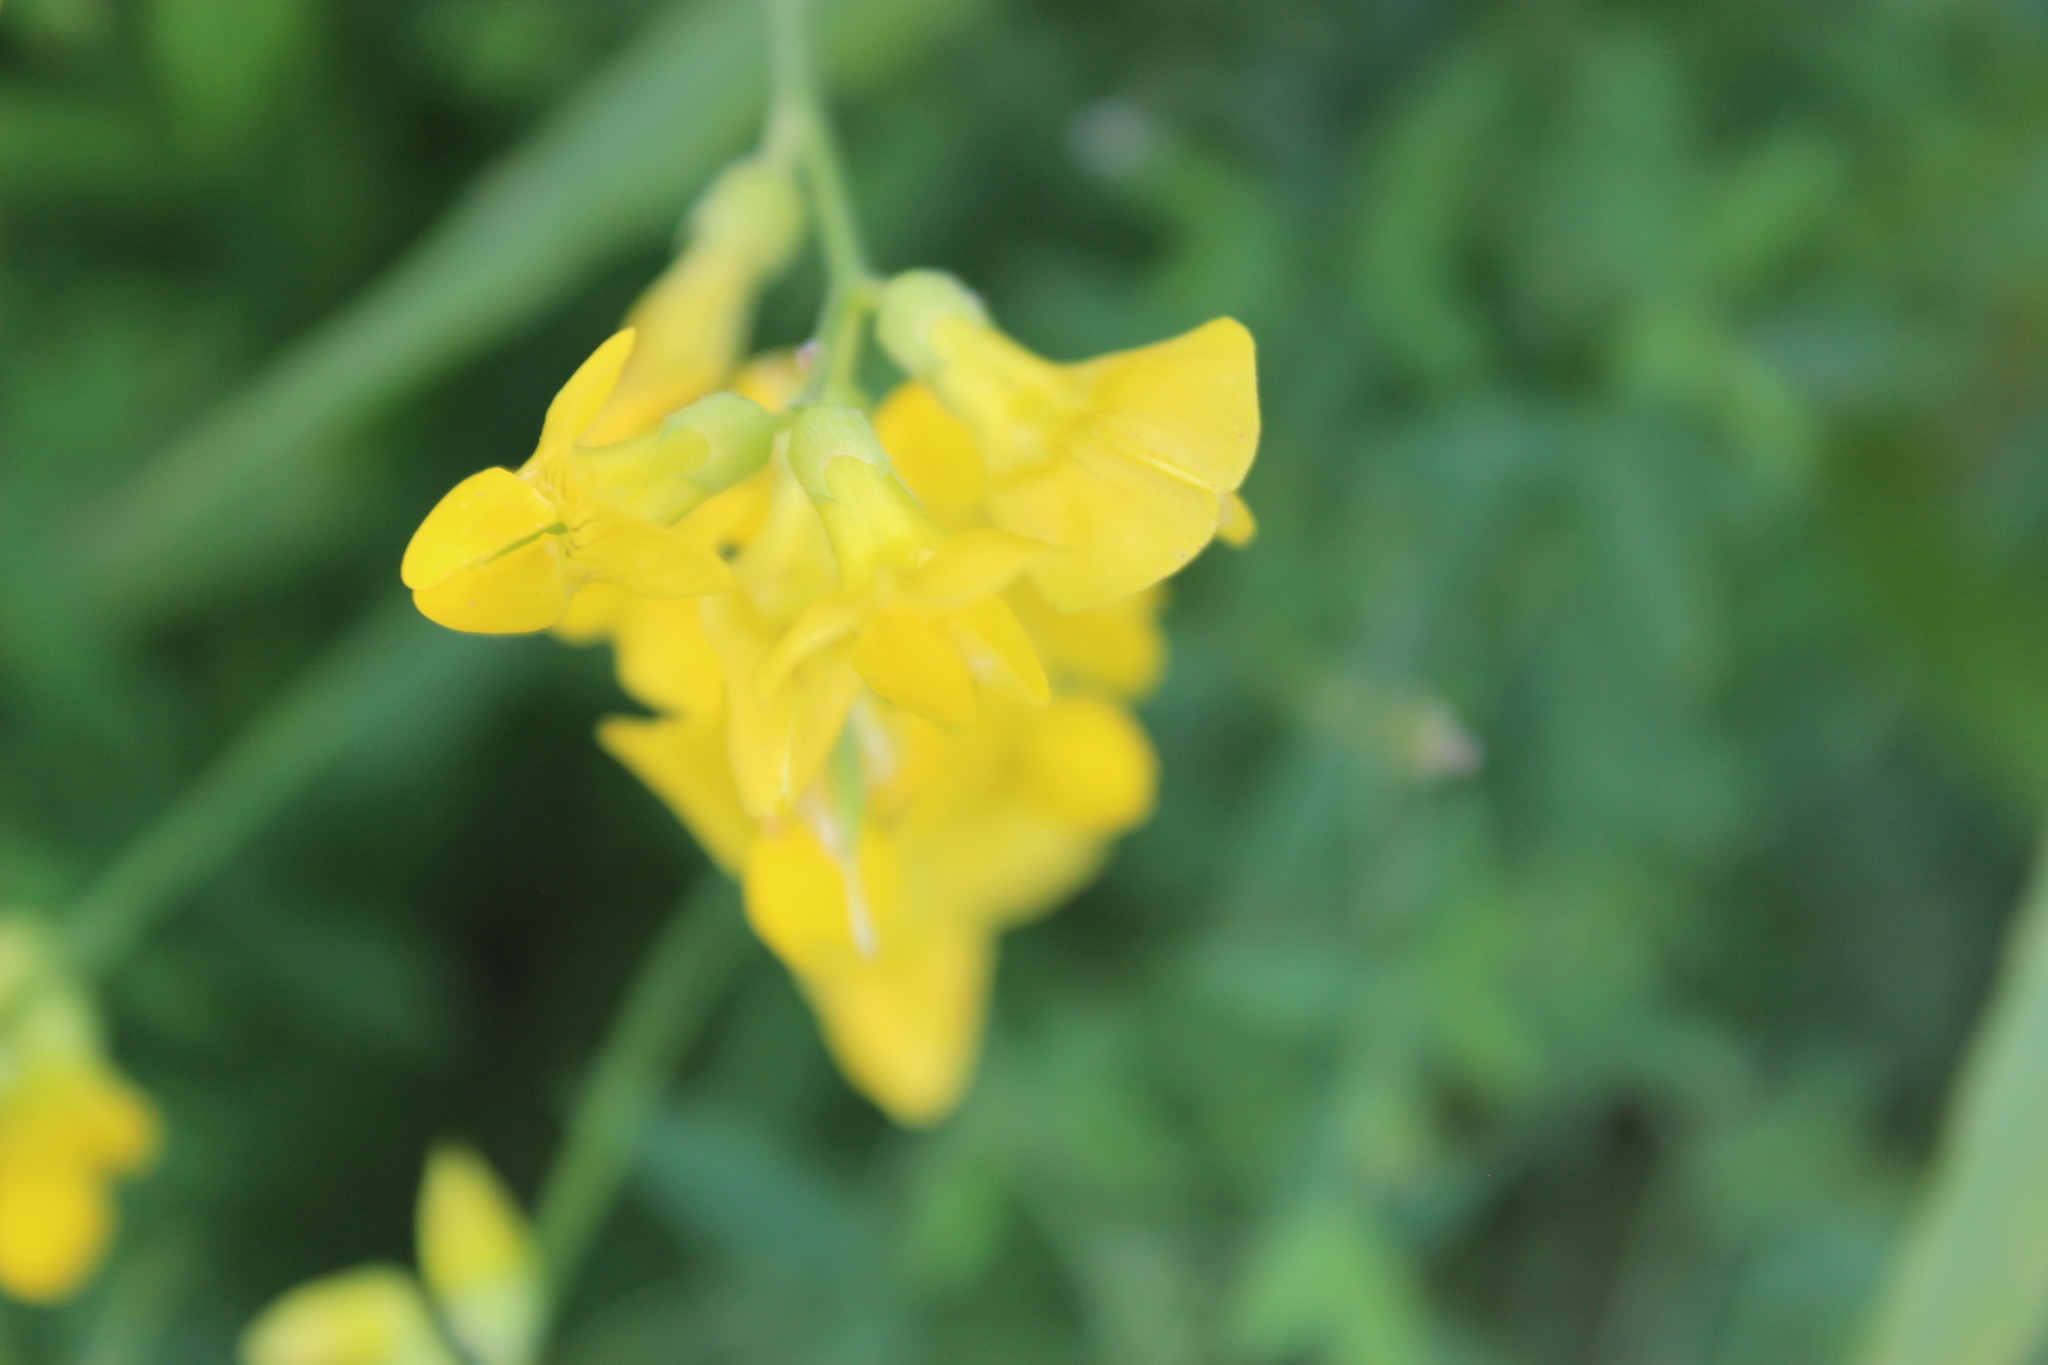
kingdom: Plantae
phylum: Tracheophyta
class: Magnoliopsida
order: Fabales
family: Fabaceae
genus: Lathyrus
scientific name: Lathyrus pratensis
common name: Meadow vetchling
